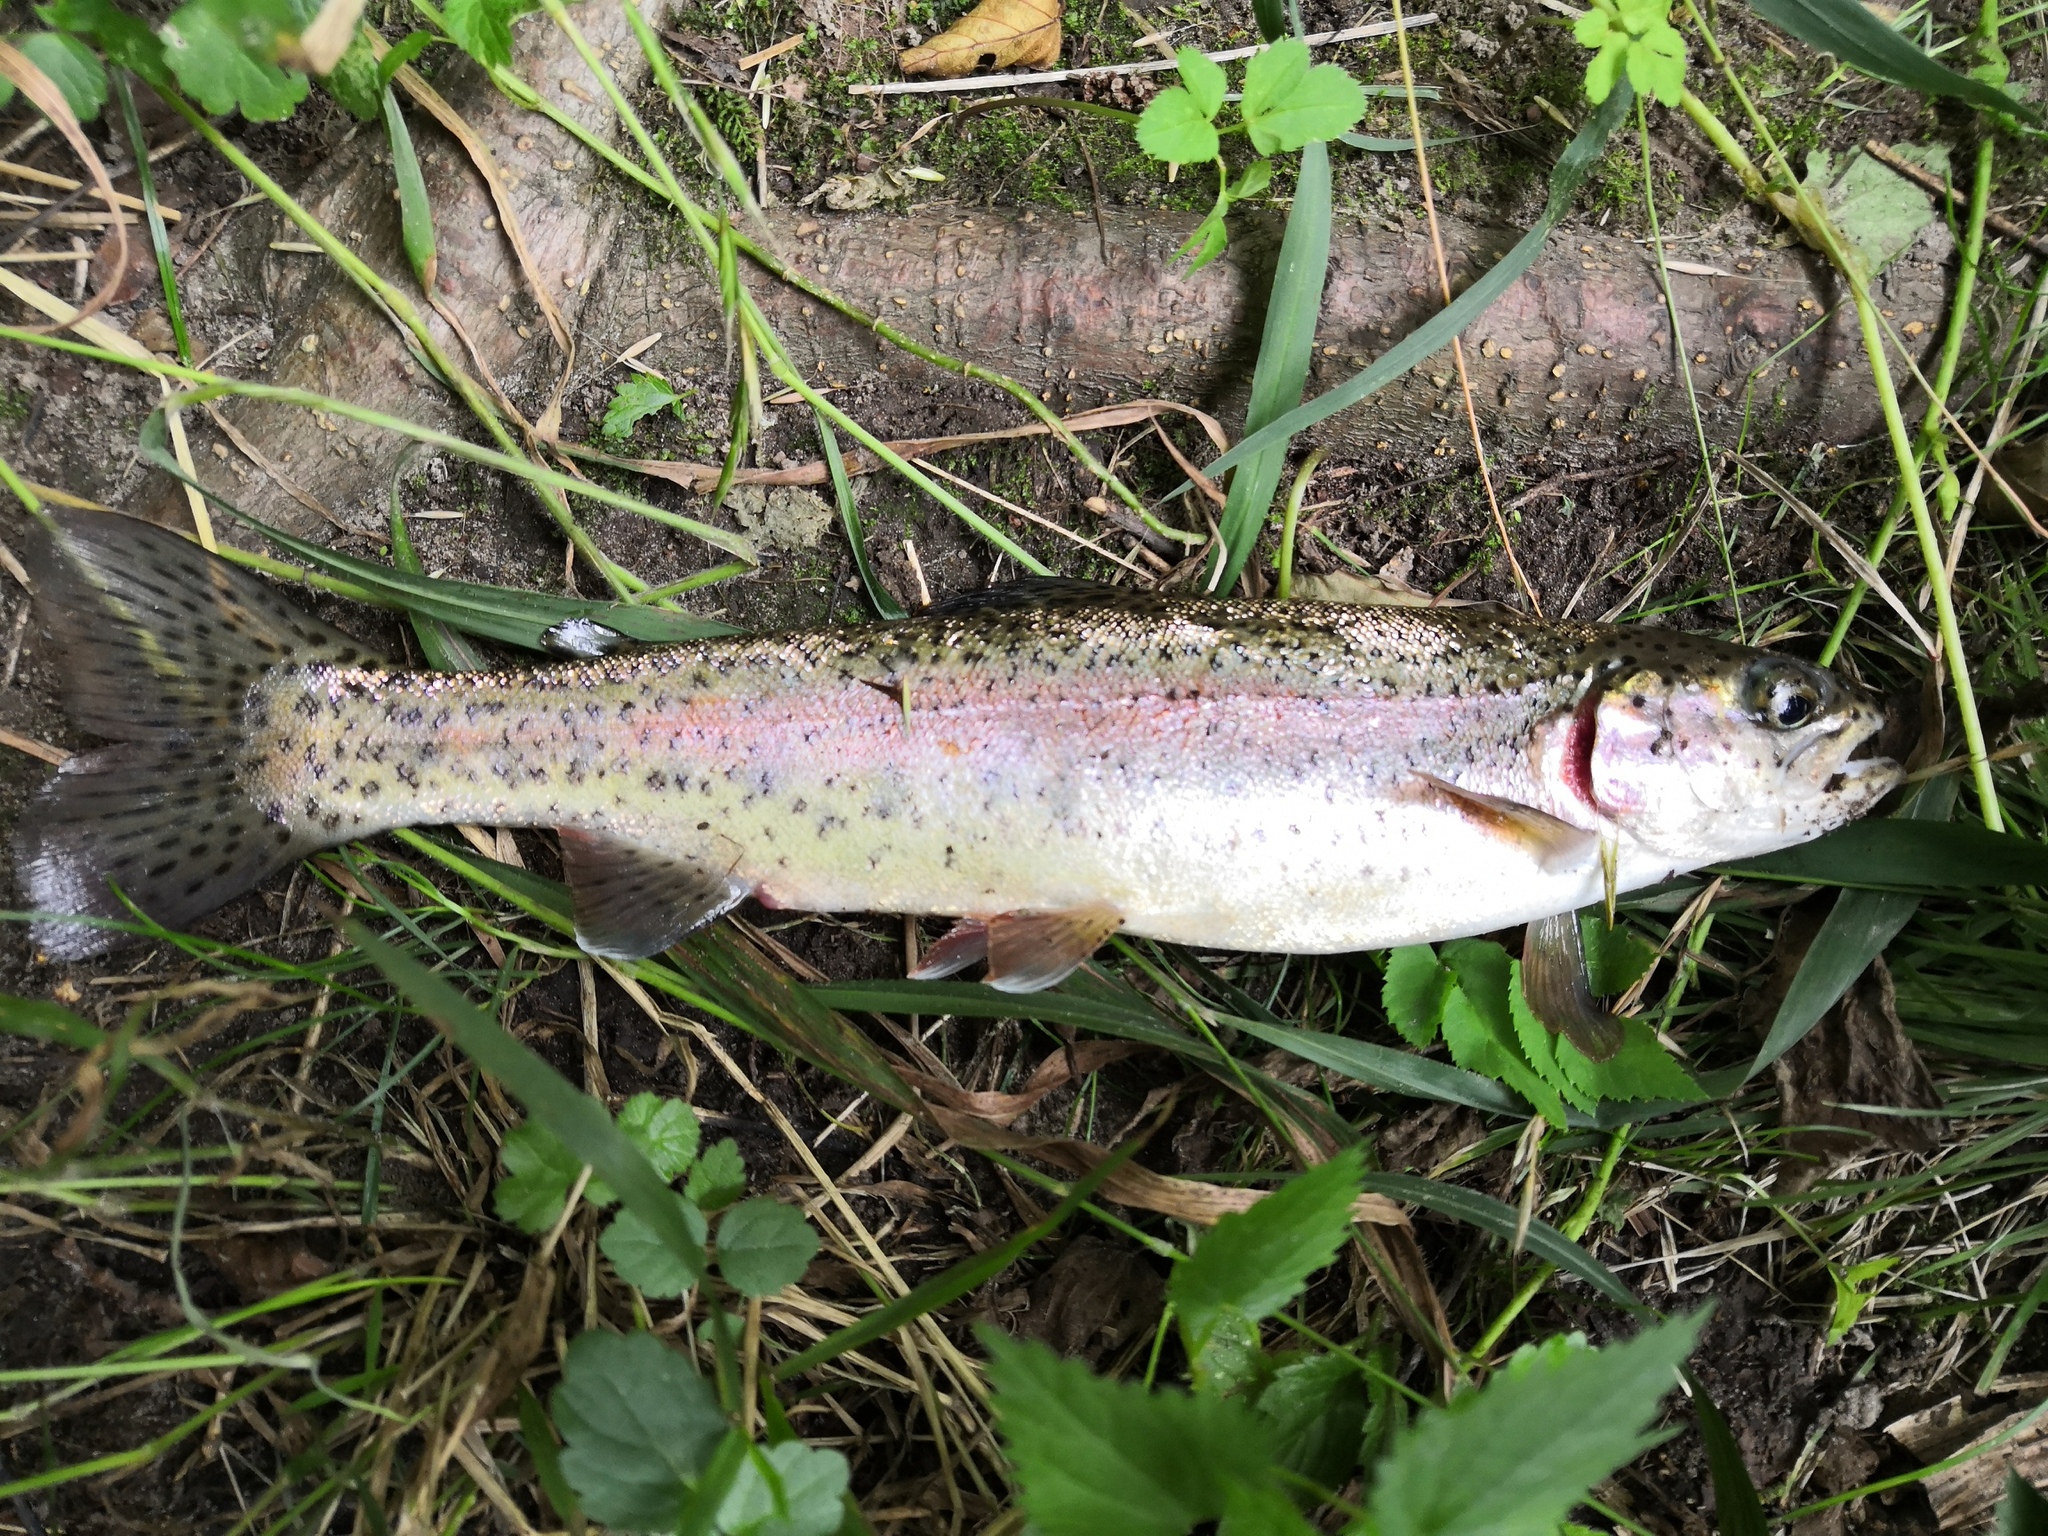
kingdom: Animalia
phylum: Chordata
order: Salmoniformes
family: Salmonidae
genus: Oncorhynchus
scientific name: Oncorhynchus mykiss
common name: Rainbow trout
